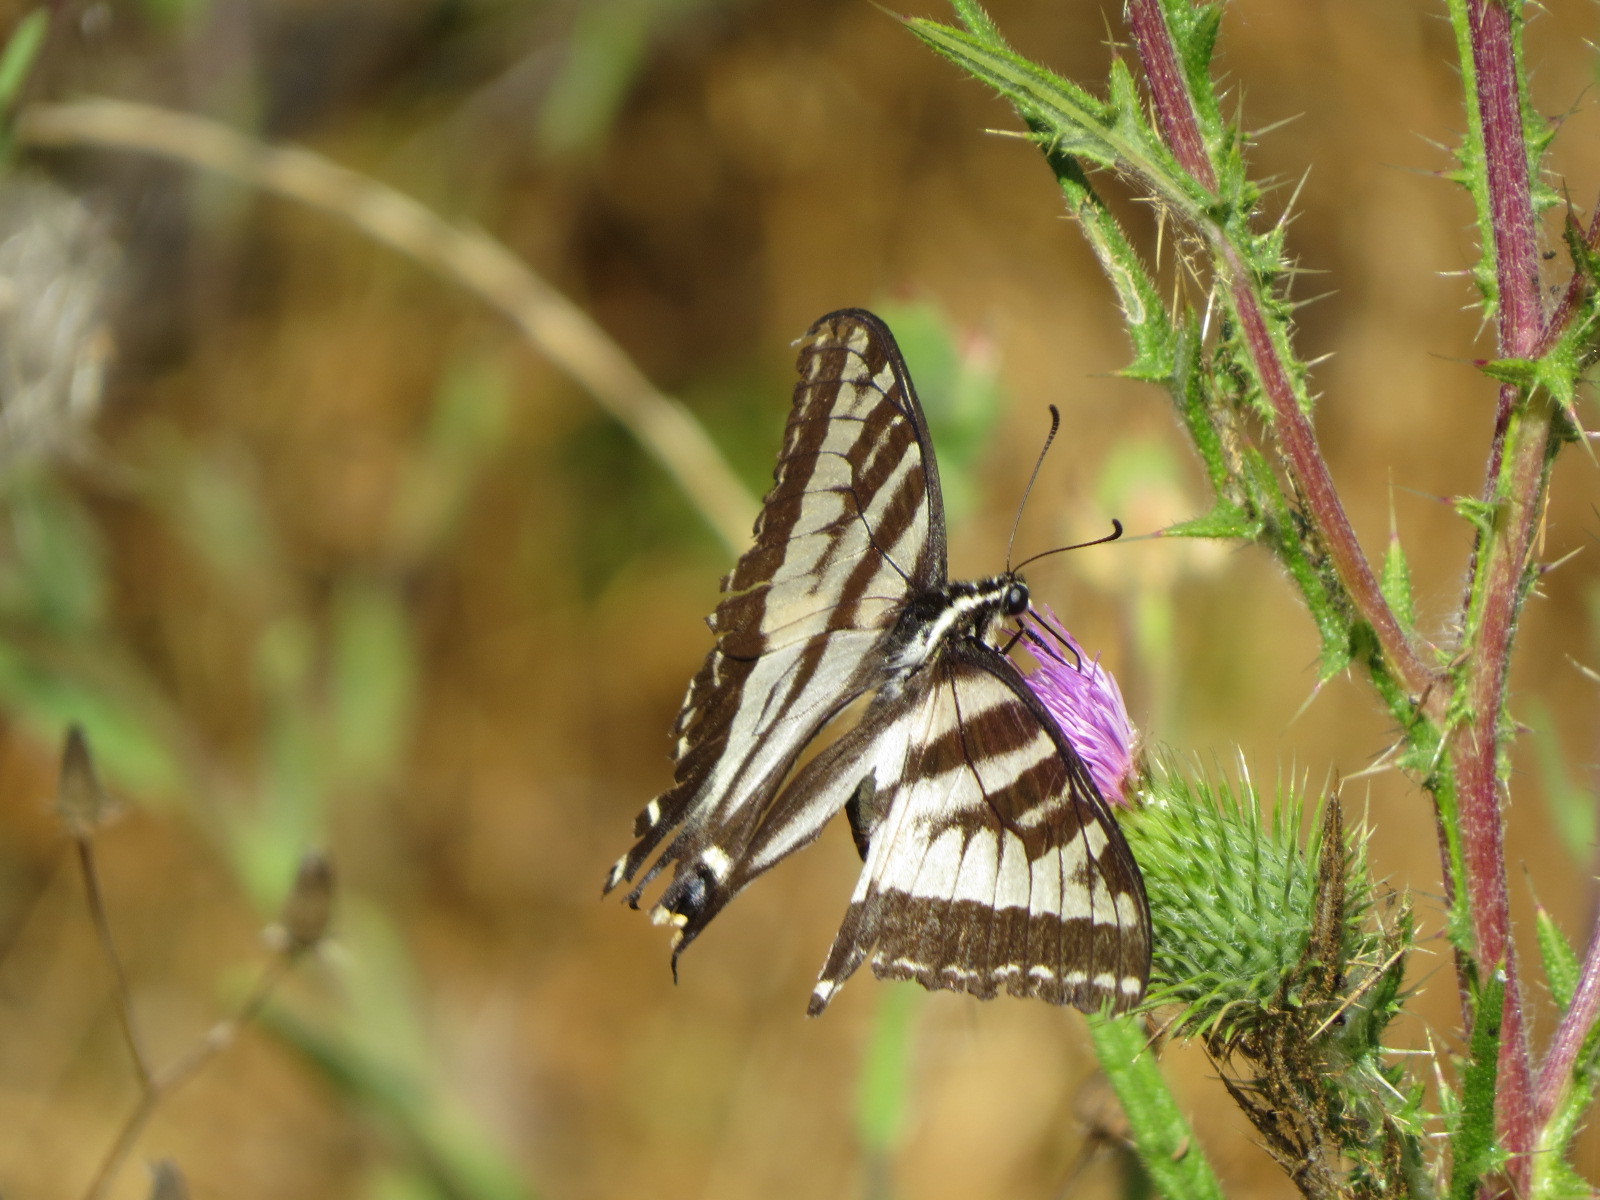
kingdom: Animalia
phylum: Arthropoda
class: Insecta
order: Lepidoptera
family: Papilionidae
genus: Papilio
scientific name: Papilio eurymedon
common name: Pale tiger swallowtail
